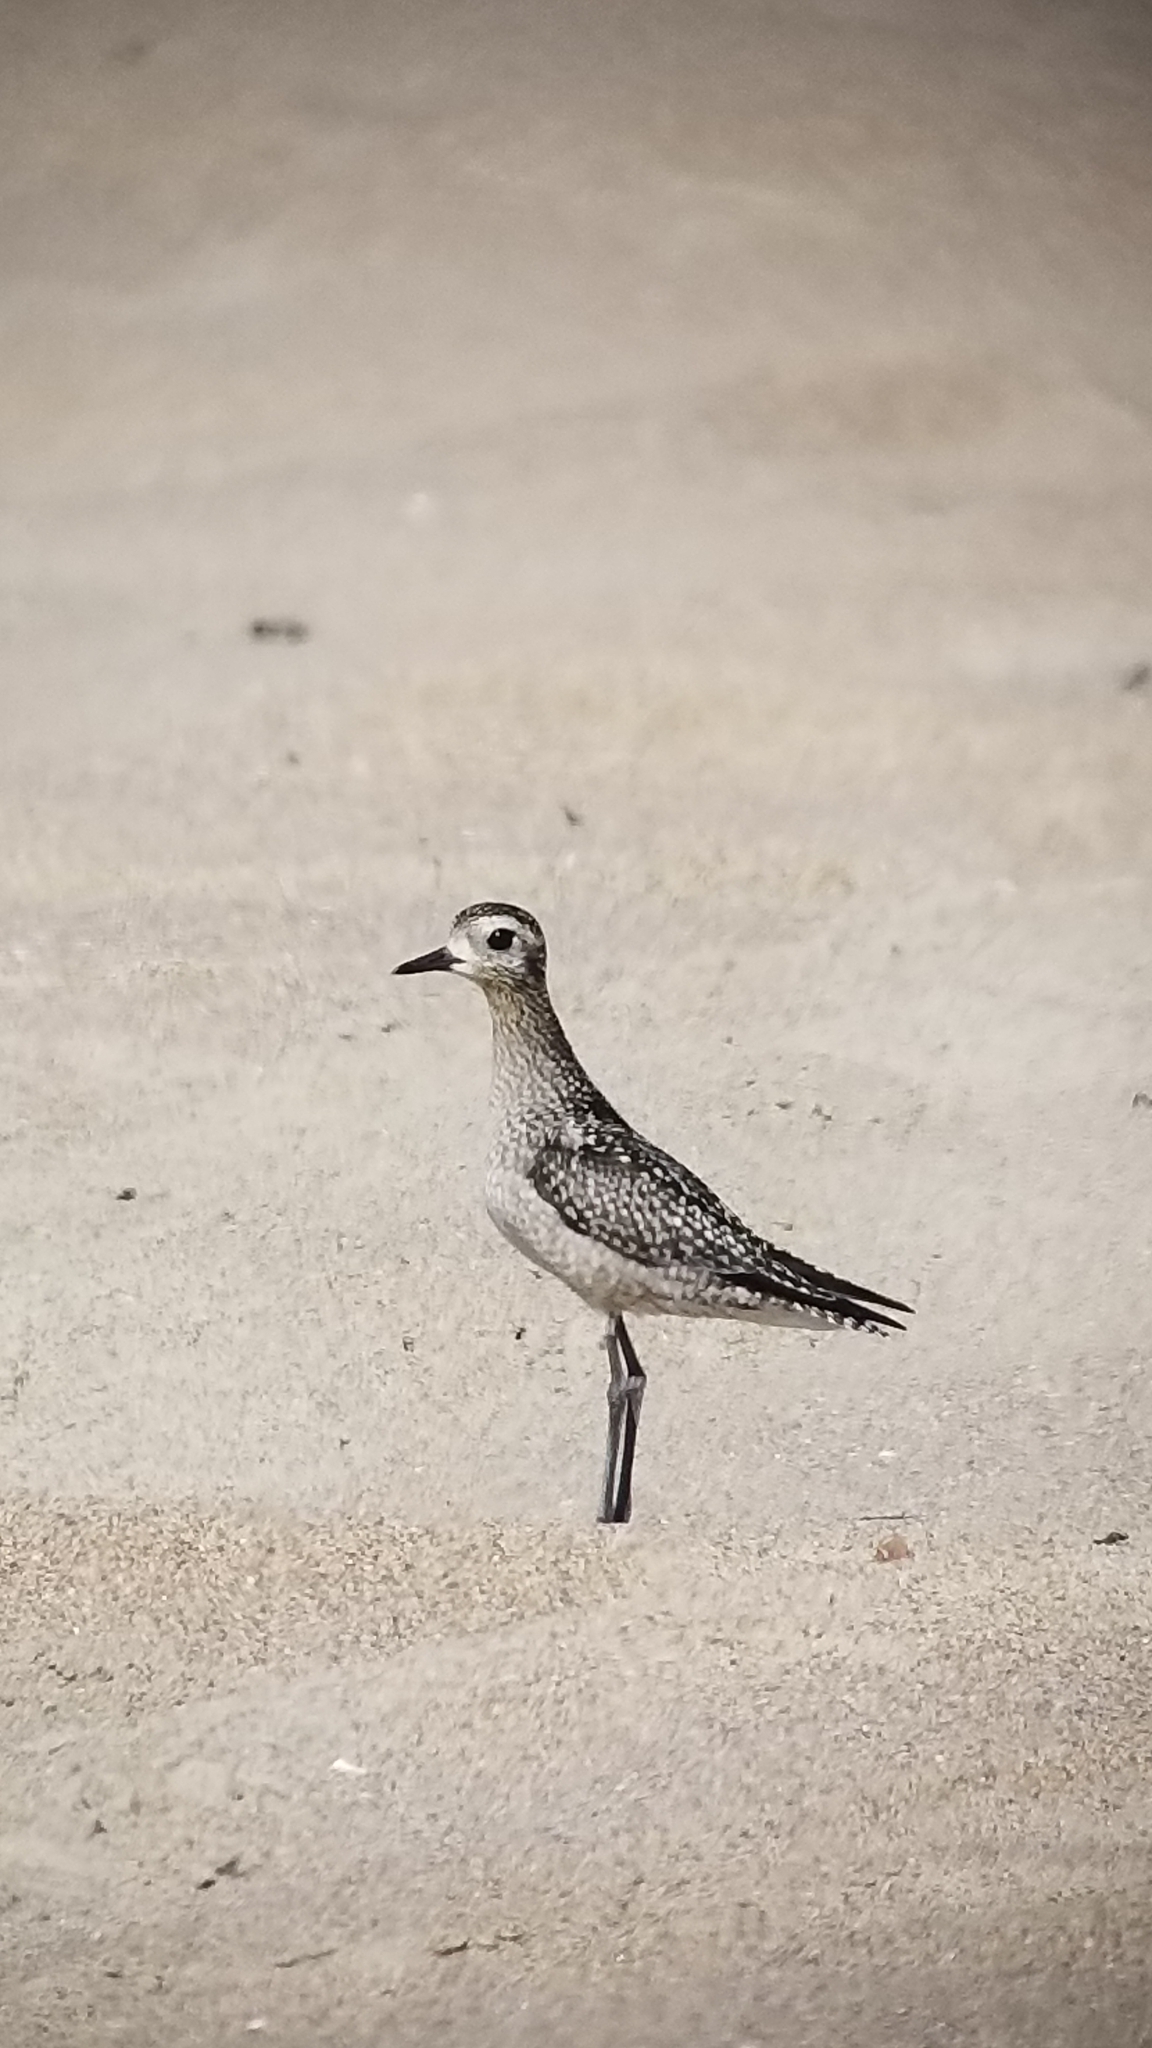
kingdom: Animalia
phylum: Chordata
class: Aves
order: Charadriiformes
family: Charadriidae
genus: Pluvialis
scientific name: Pluvialis fulva
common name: Pacific golden plover
